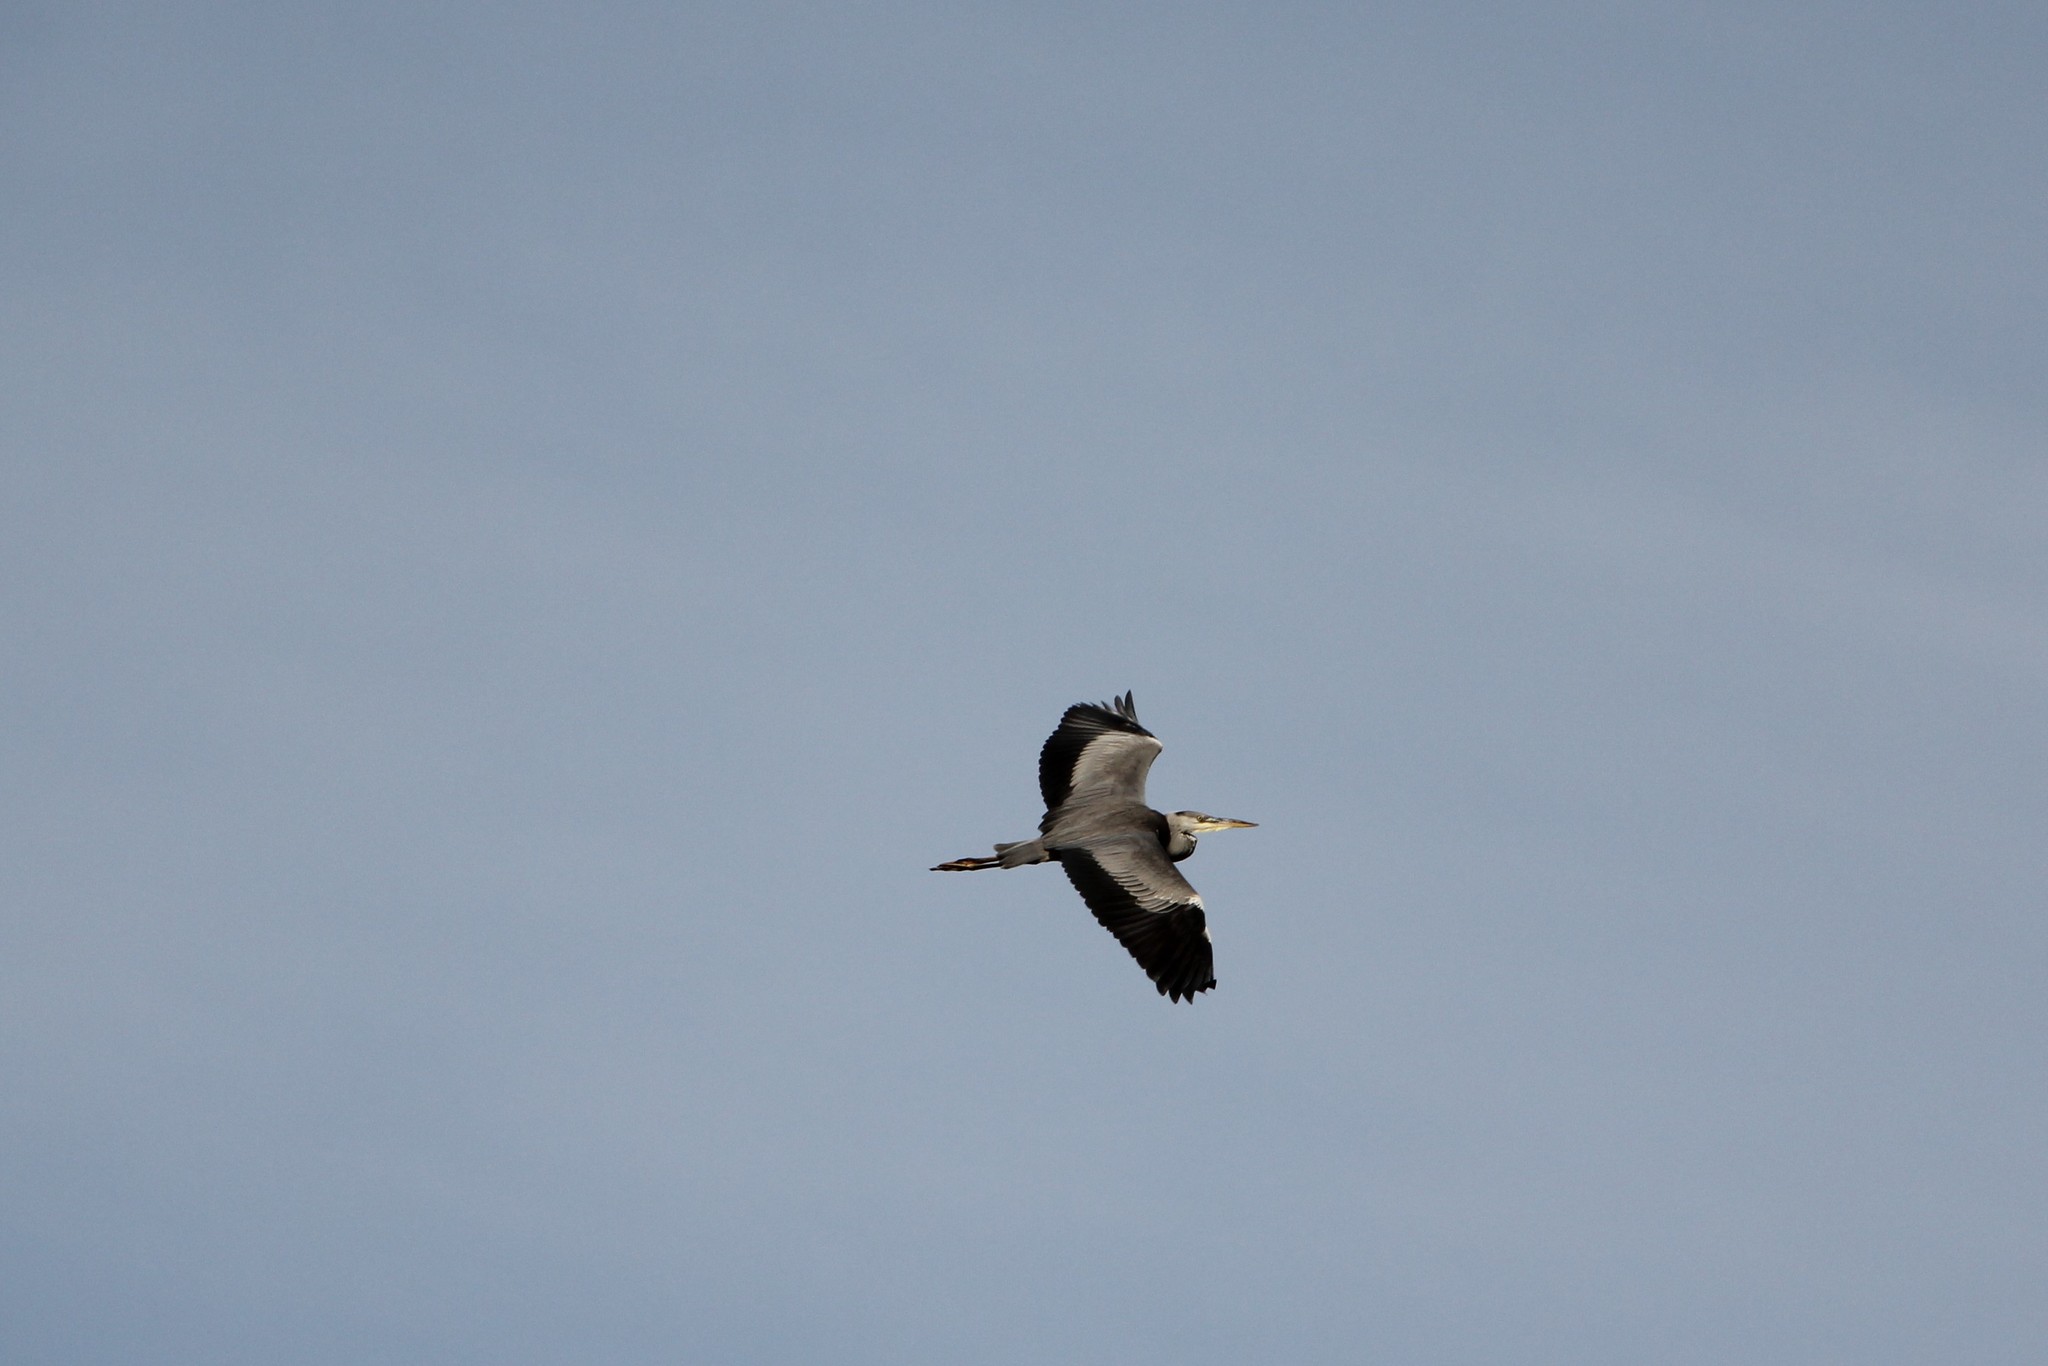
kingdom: Animalia
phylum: Chordata
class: Aves
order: Pelecaniformes
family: Ardeidae
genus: Ardea
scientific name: Ardea cinerea
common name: Grey heron
